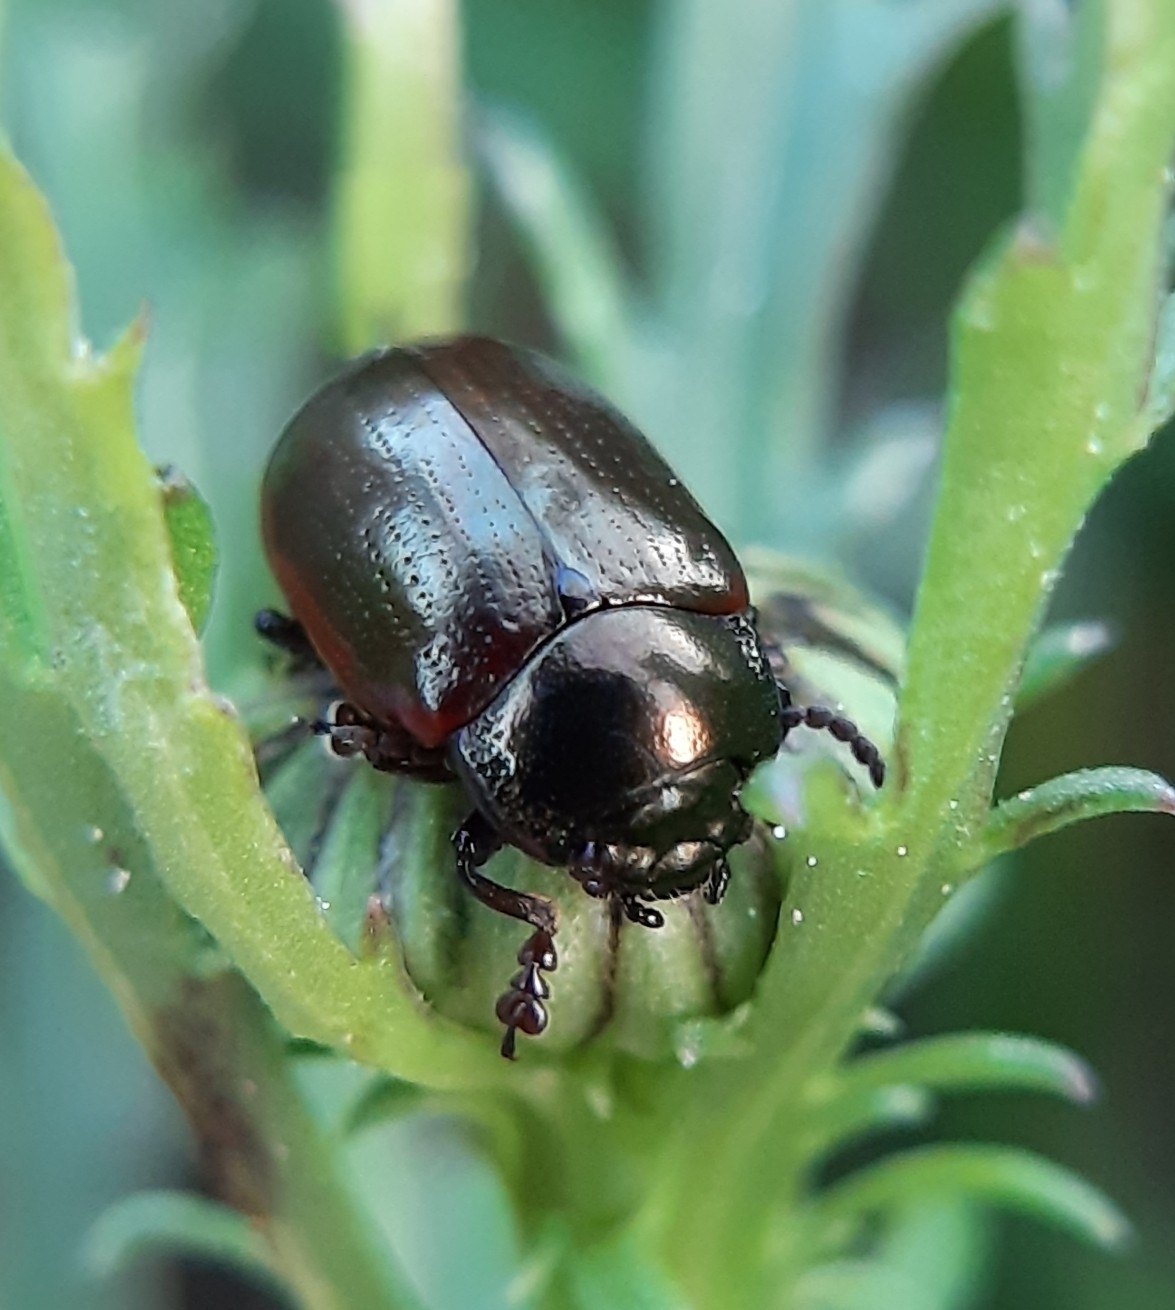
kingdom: Animalia
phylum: Arthropoda
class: Insecta
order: Coleoptera
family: Chrysomelidae
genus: Chrysolina
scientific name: Chrysolina marginata
